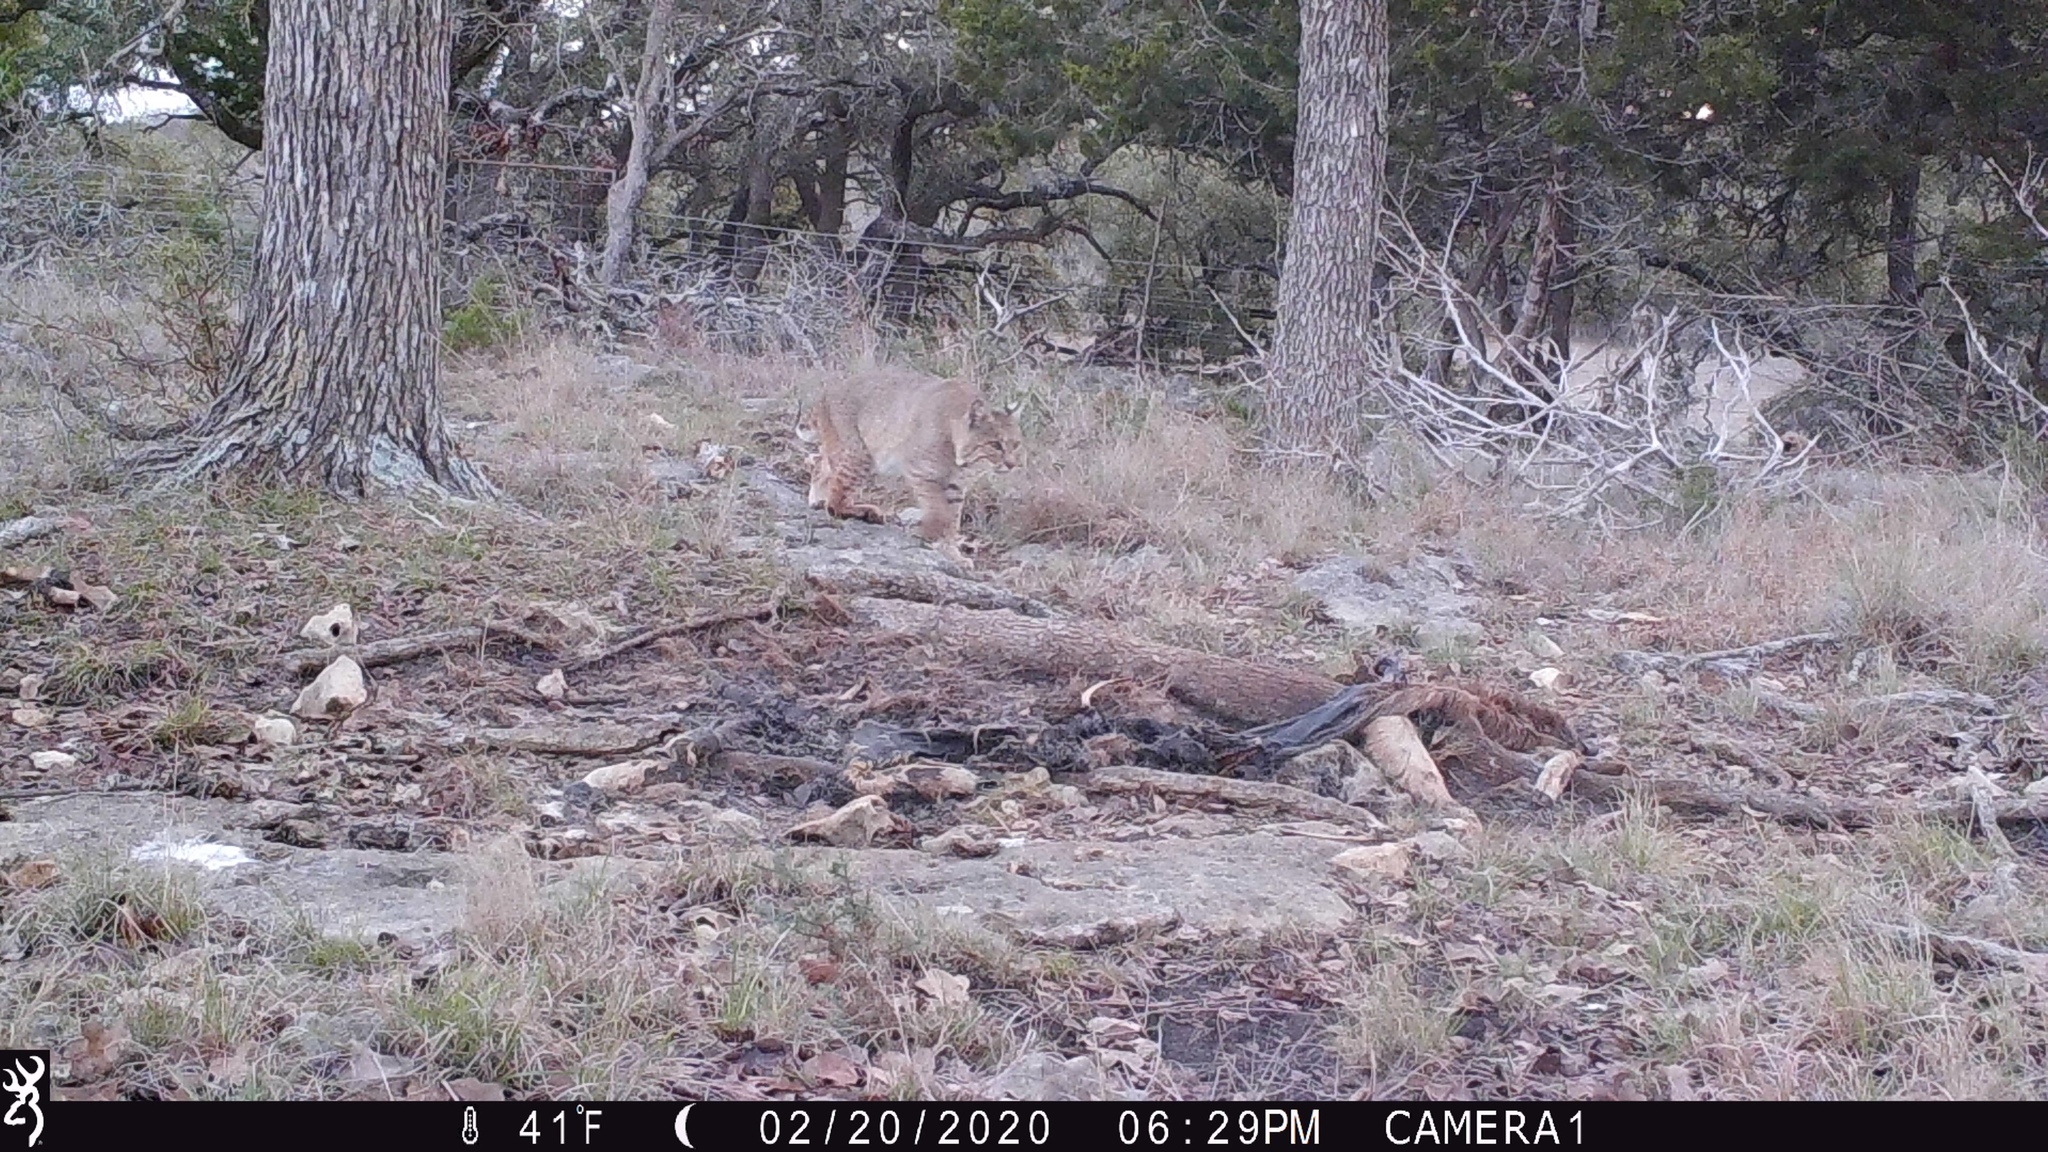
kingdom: Animalia
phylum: Chordata
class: Mammalia
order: Carnivora
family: Felidae
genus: Lynx
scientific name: Lynx rufus
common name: Bobcat
